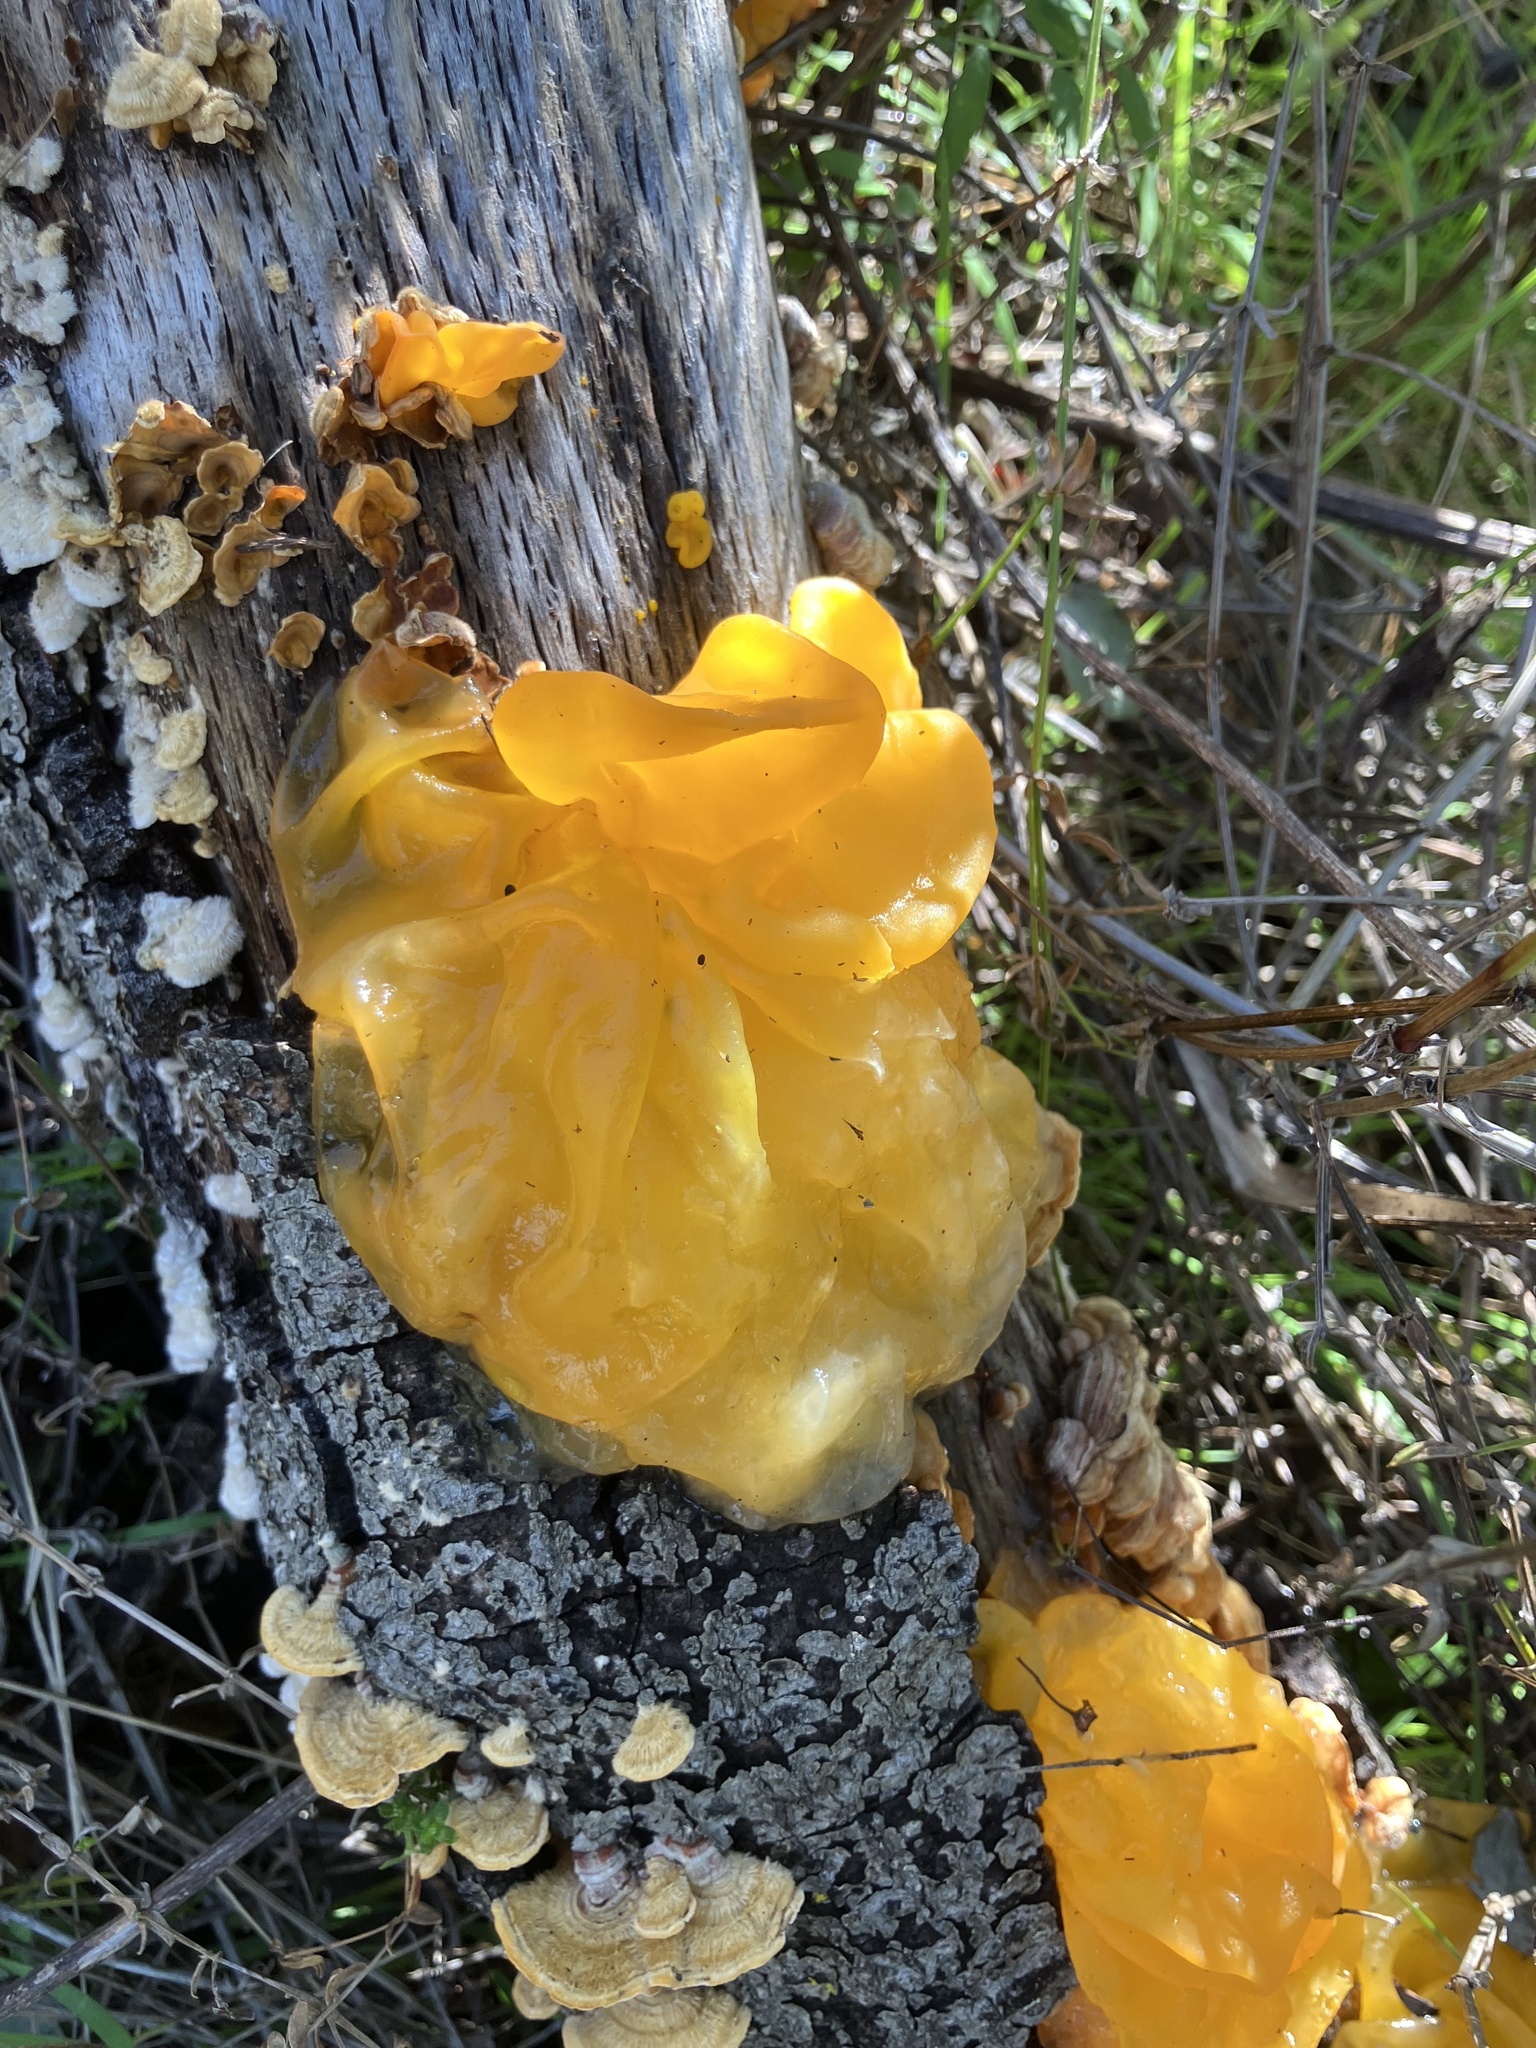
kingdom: Fungi
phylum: Basidiomycota
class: Tremellomycetes
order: Tremellales
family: Naemateliaceae
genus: Naematelia
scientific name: Naematelia aurantia
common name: Golden ear
